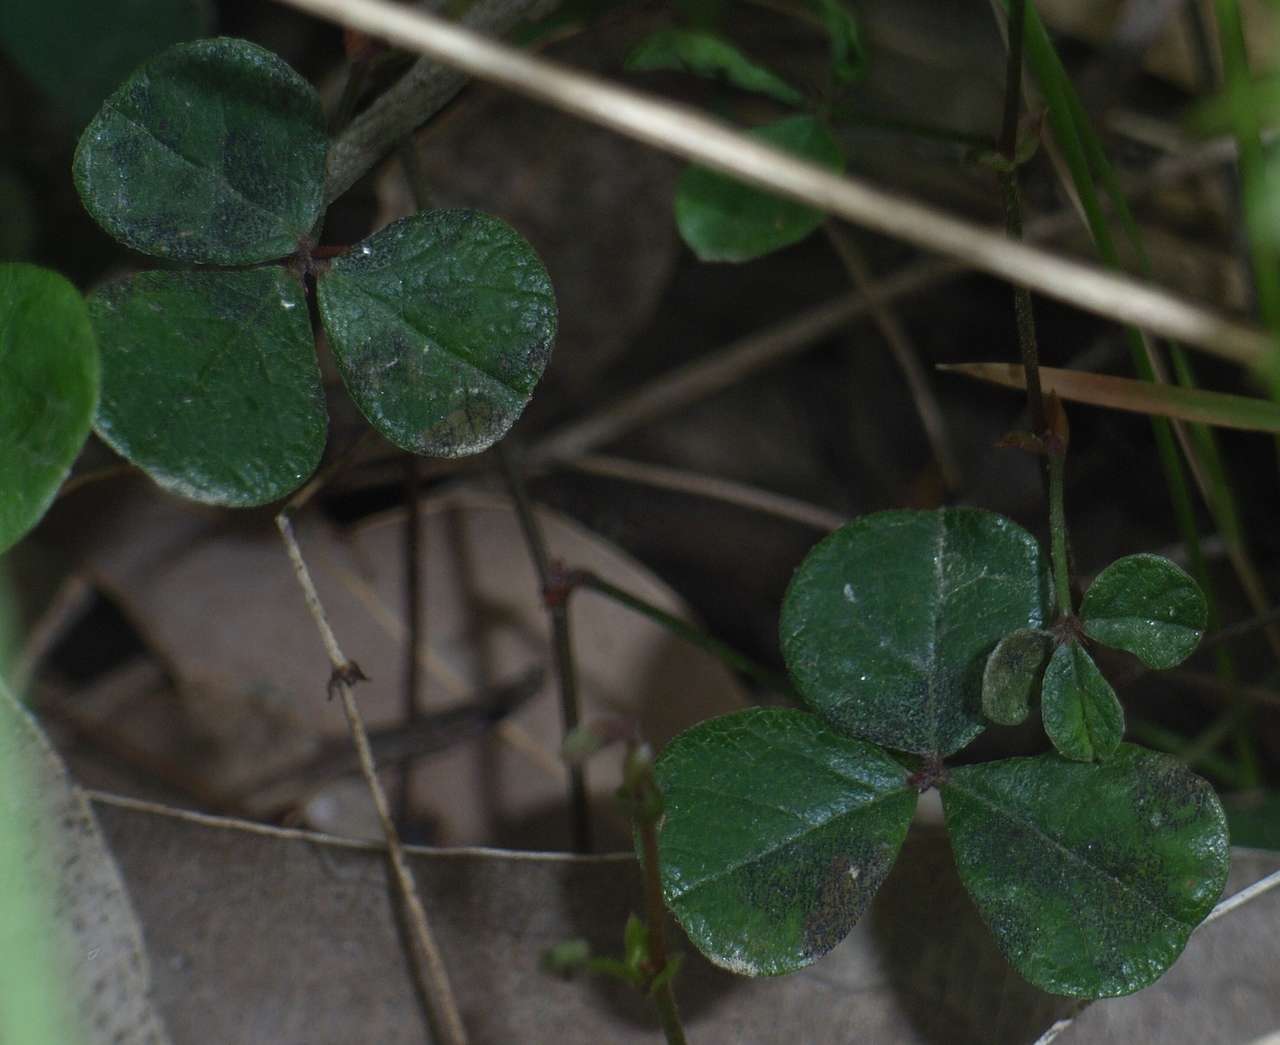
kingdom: Plantae
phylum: Tracheophyta
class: Magnoliopsida
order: Fabales
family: Fabaceae
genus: Pullenia
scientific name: Pullenia gunnii
